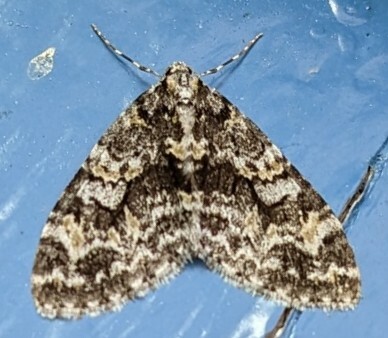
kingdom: Animalia
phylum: Arthropoda
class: Insecta
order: Lepidoptera
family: Geometridae
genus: Cladara
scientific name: Cladara limitaria
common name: Mottled gray carpet
